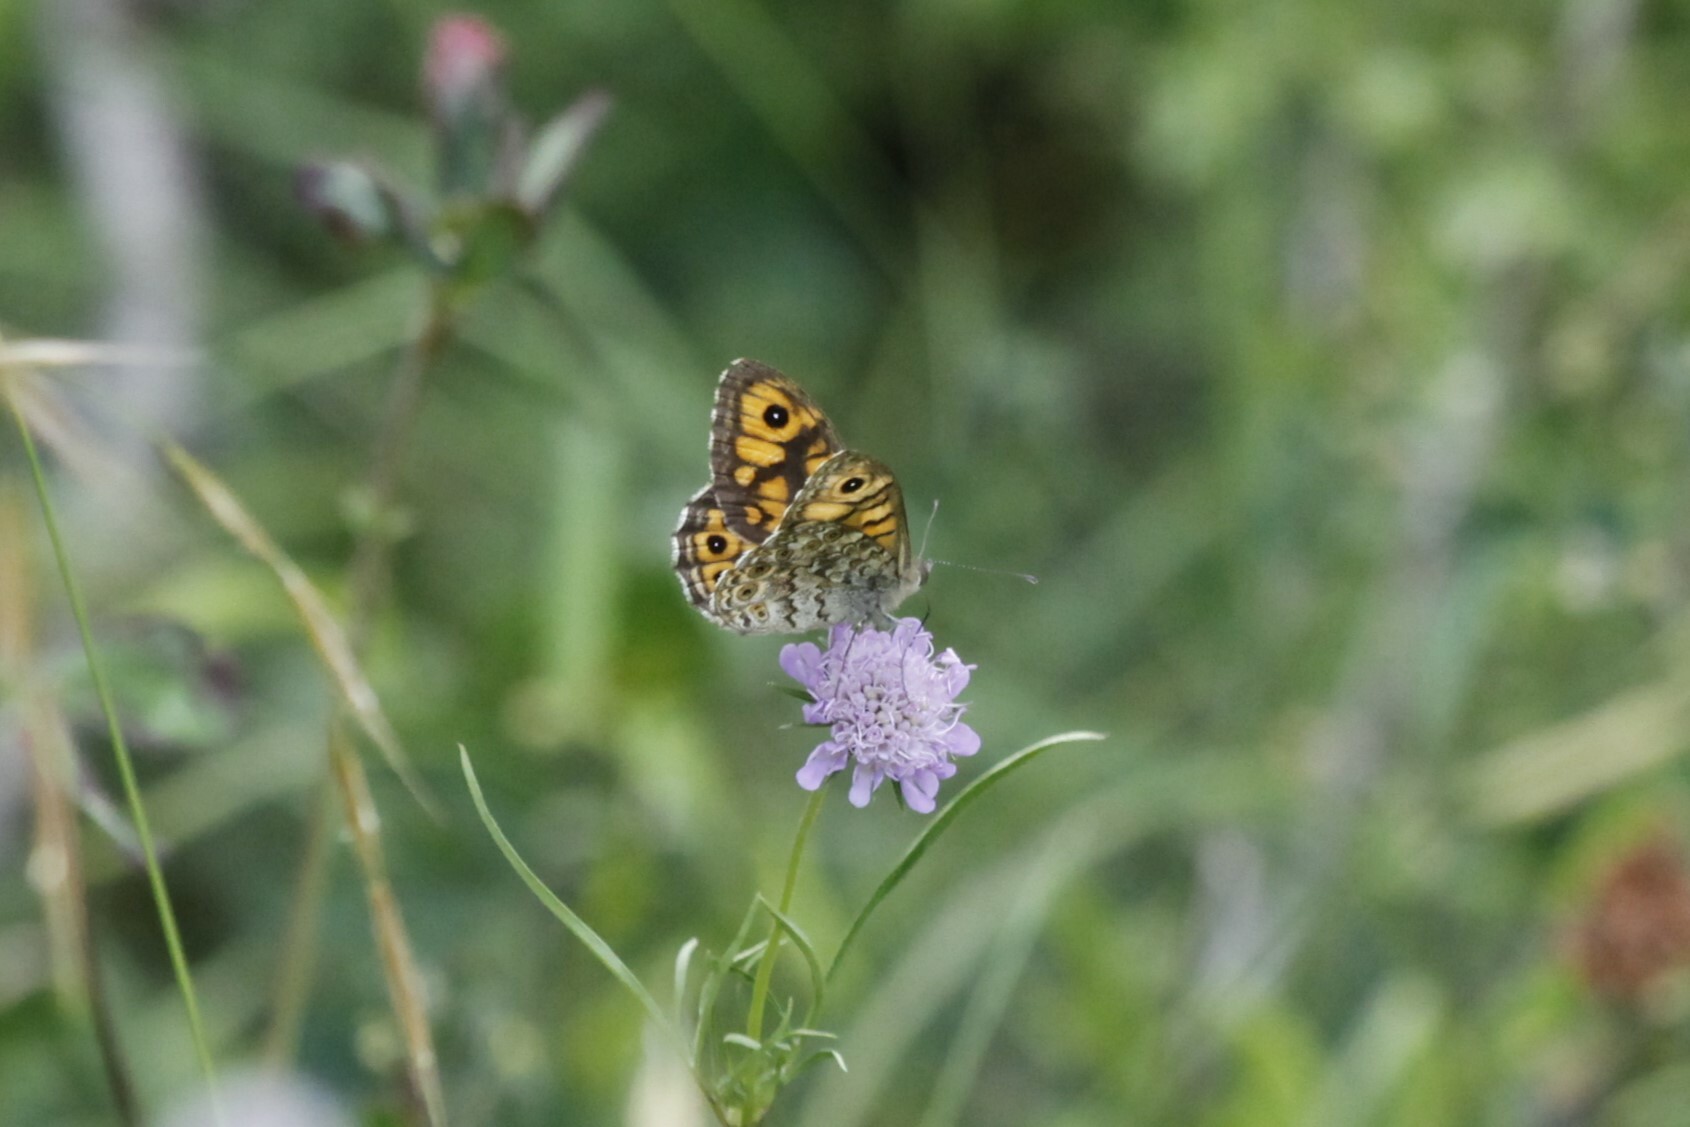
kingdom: Animalia
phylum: Arthropoda
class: Insecta
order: Lepidoptera
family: Nymphalidae
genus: Pararge
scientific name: Pararge Lasiommata megera
